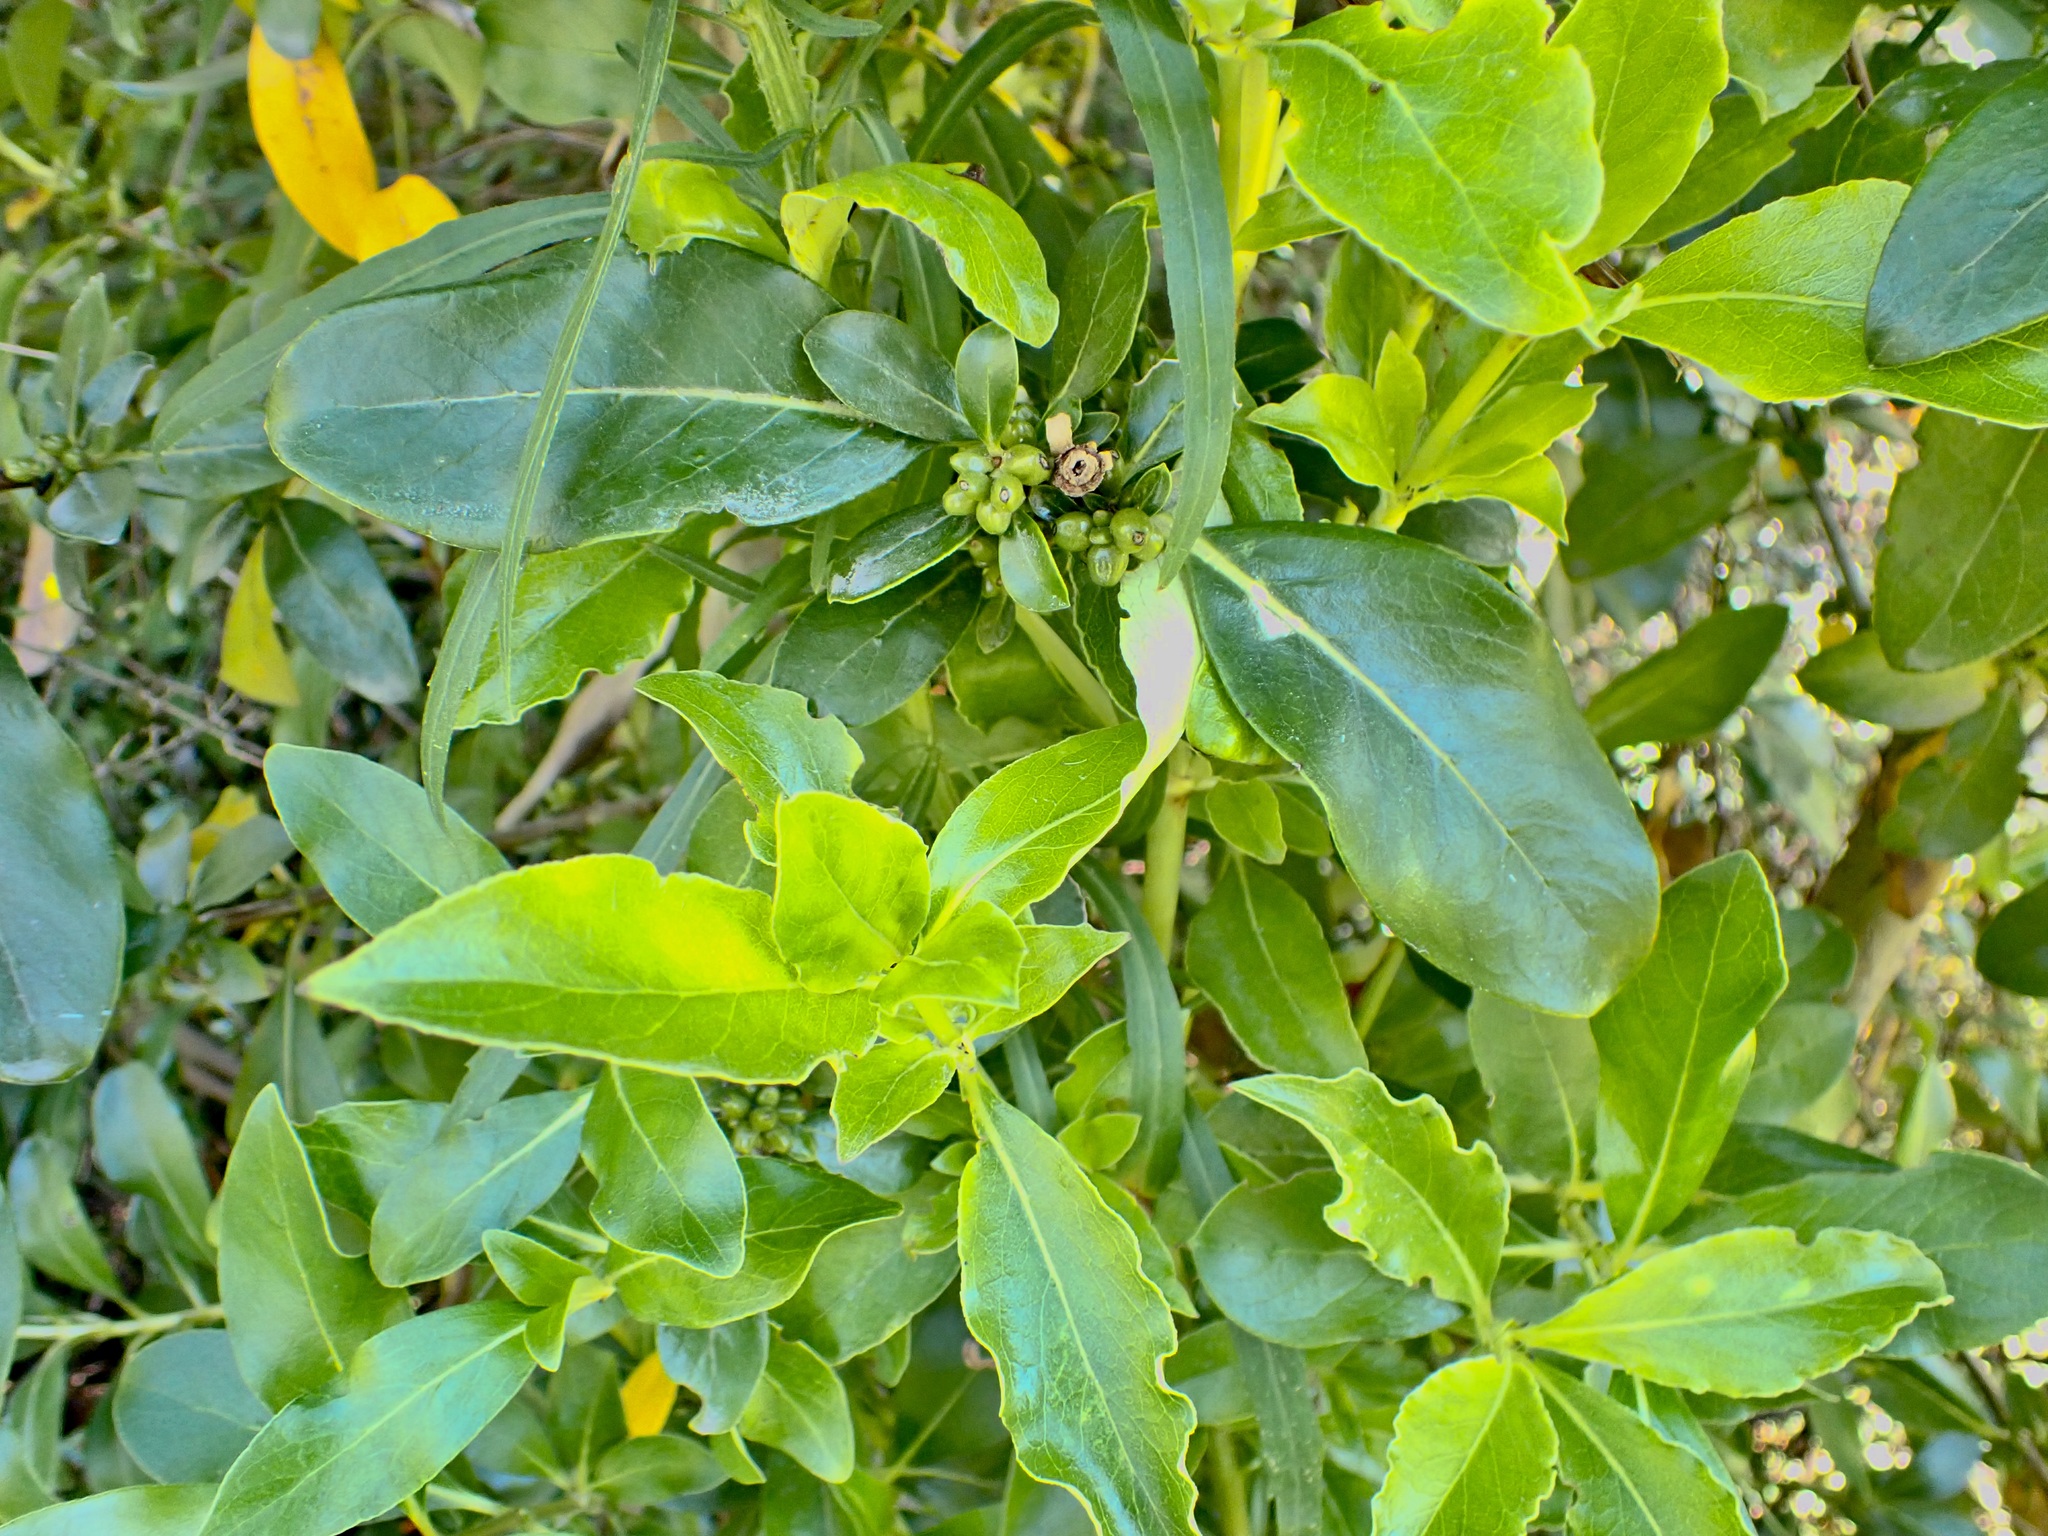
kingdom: Plantae
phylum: Tracheophyta
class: Magnoliopsida
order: Gentianales
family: Rubiaceae
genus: Coprosma
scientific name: Coprosma robusta
